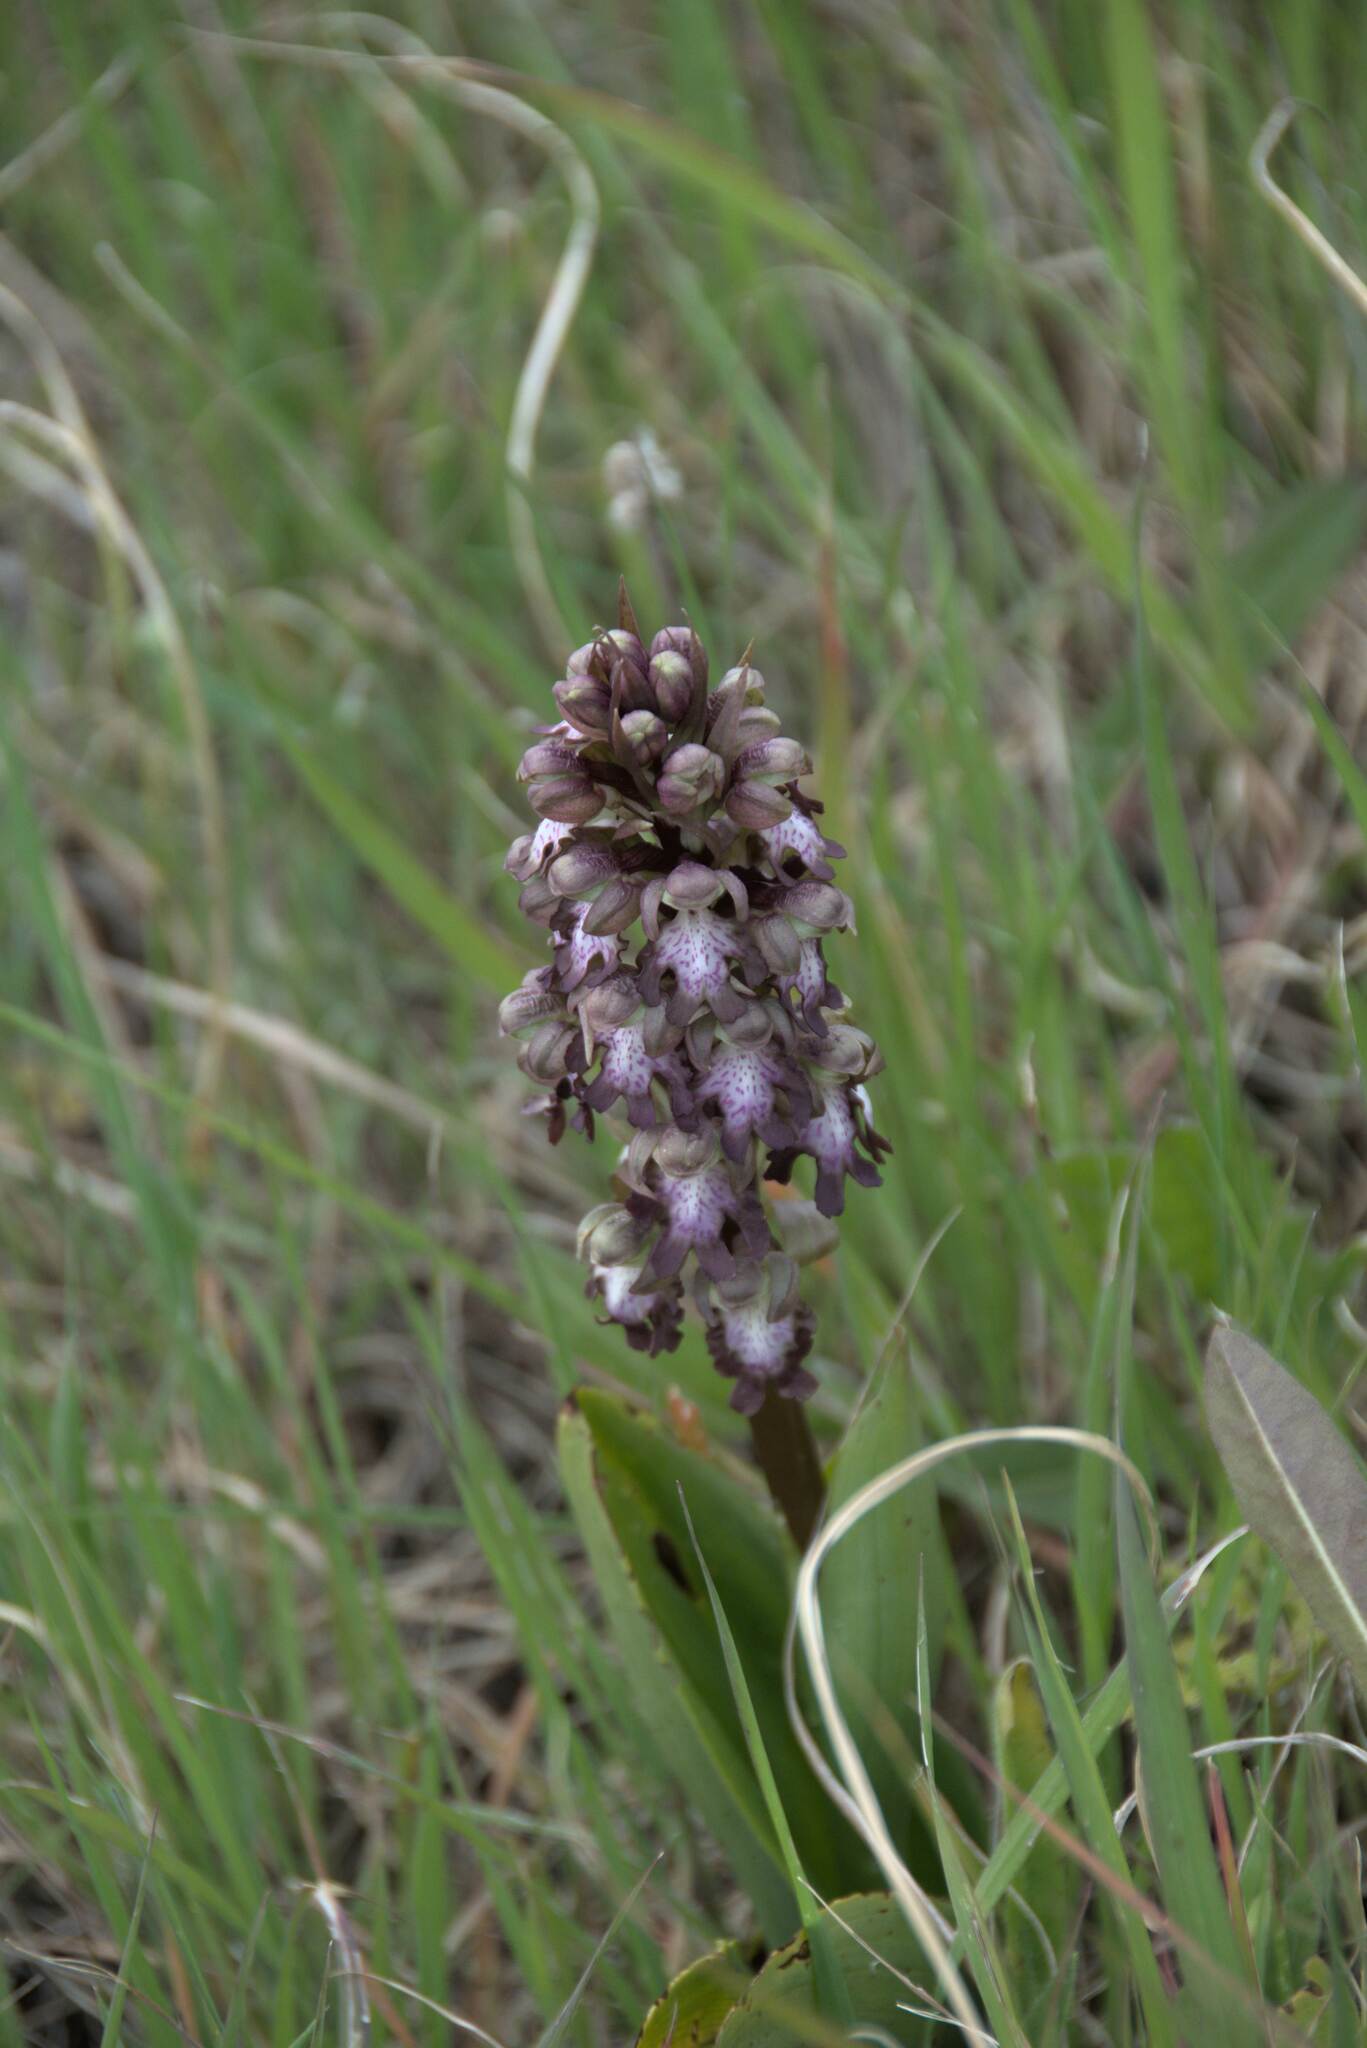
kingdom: Plantae
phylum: Tracheophyta
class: Liliopsida
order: Asparagales
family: Orchidaceae
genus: Himantoglossum
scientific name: Himantoglossum robertianum
